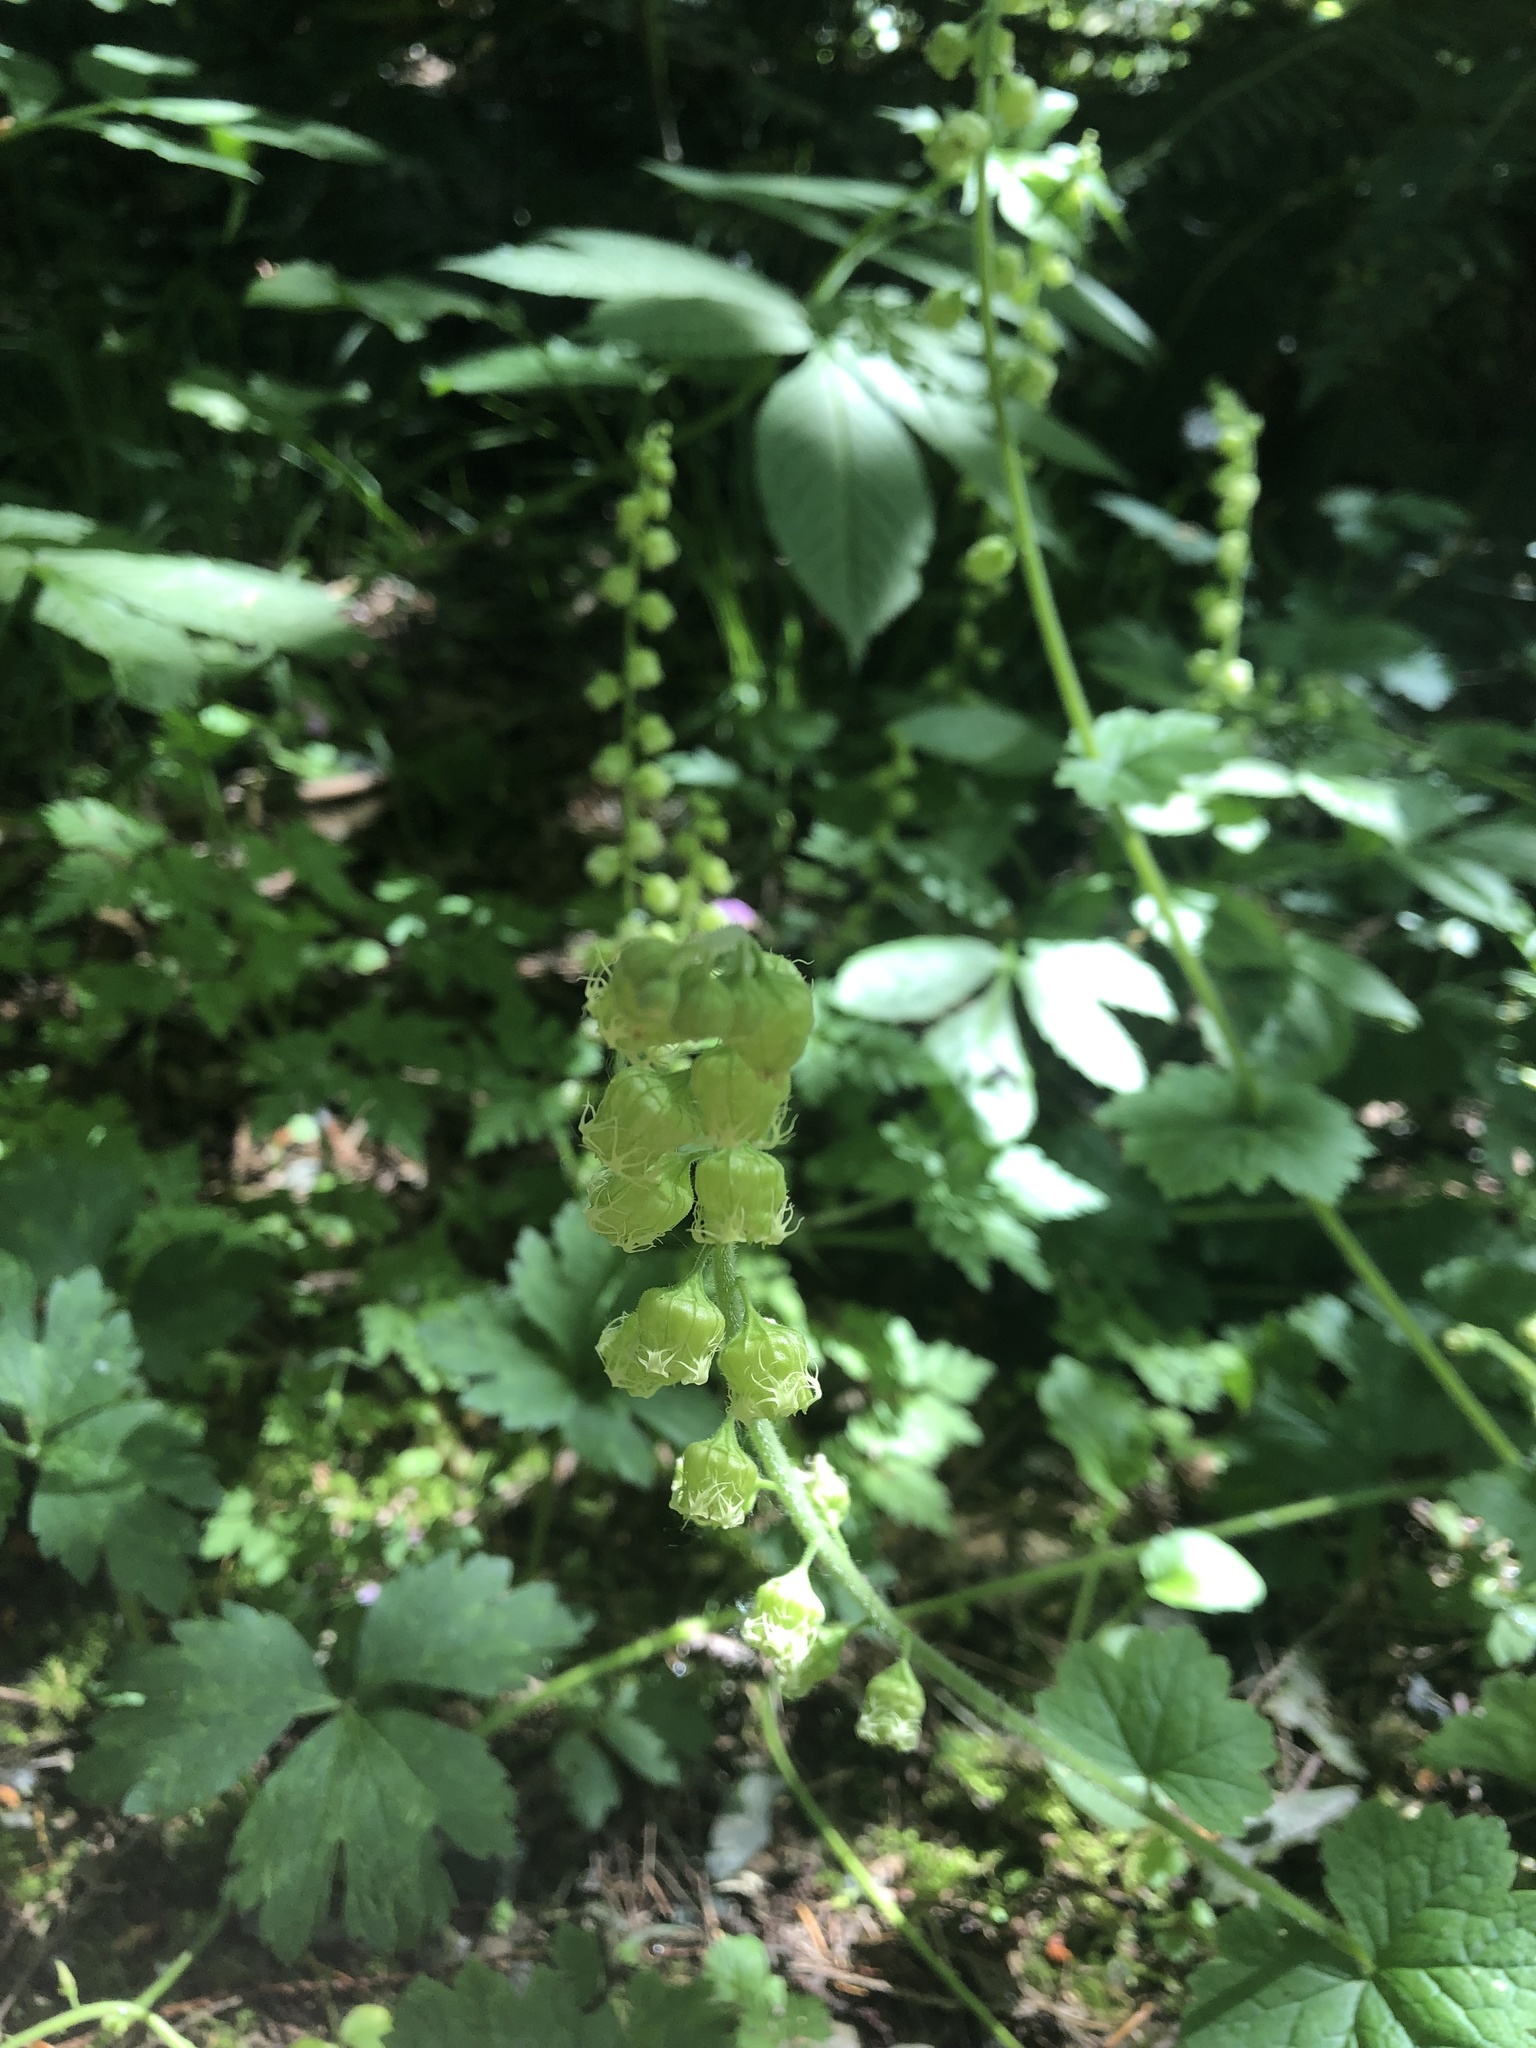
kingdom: Plantae
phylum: Tracheophyta
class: Magnoliopsida
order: Saxifragales
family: Saxifragaceae
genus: Tellima
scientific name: Tellima grandiflora
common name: Fringecups
